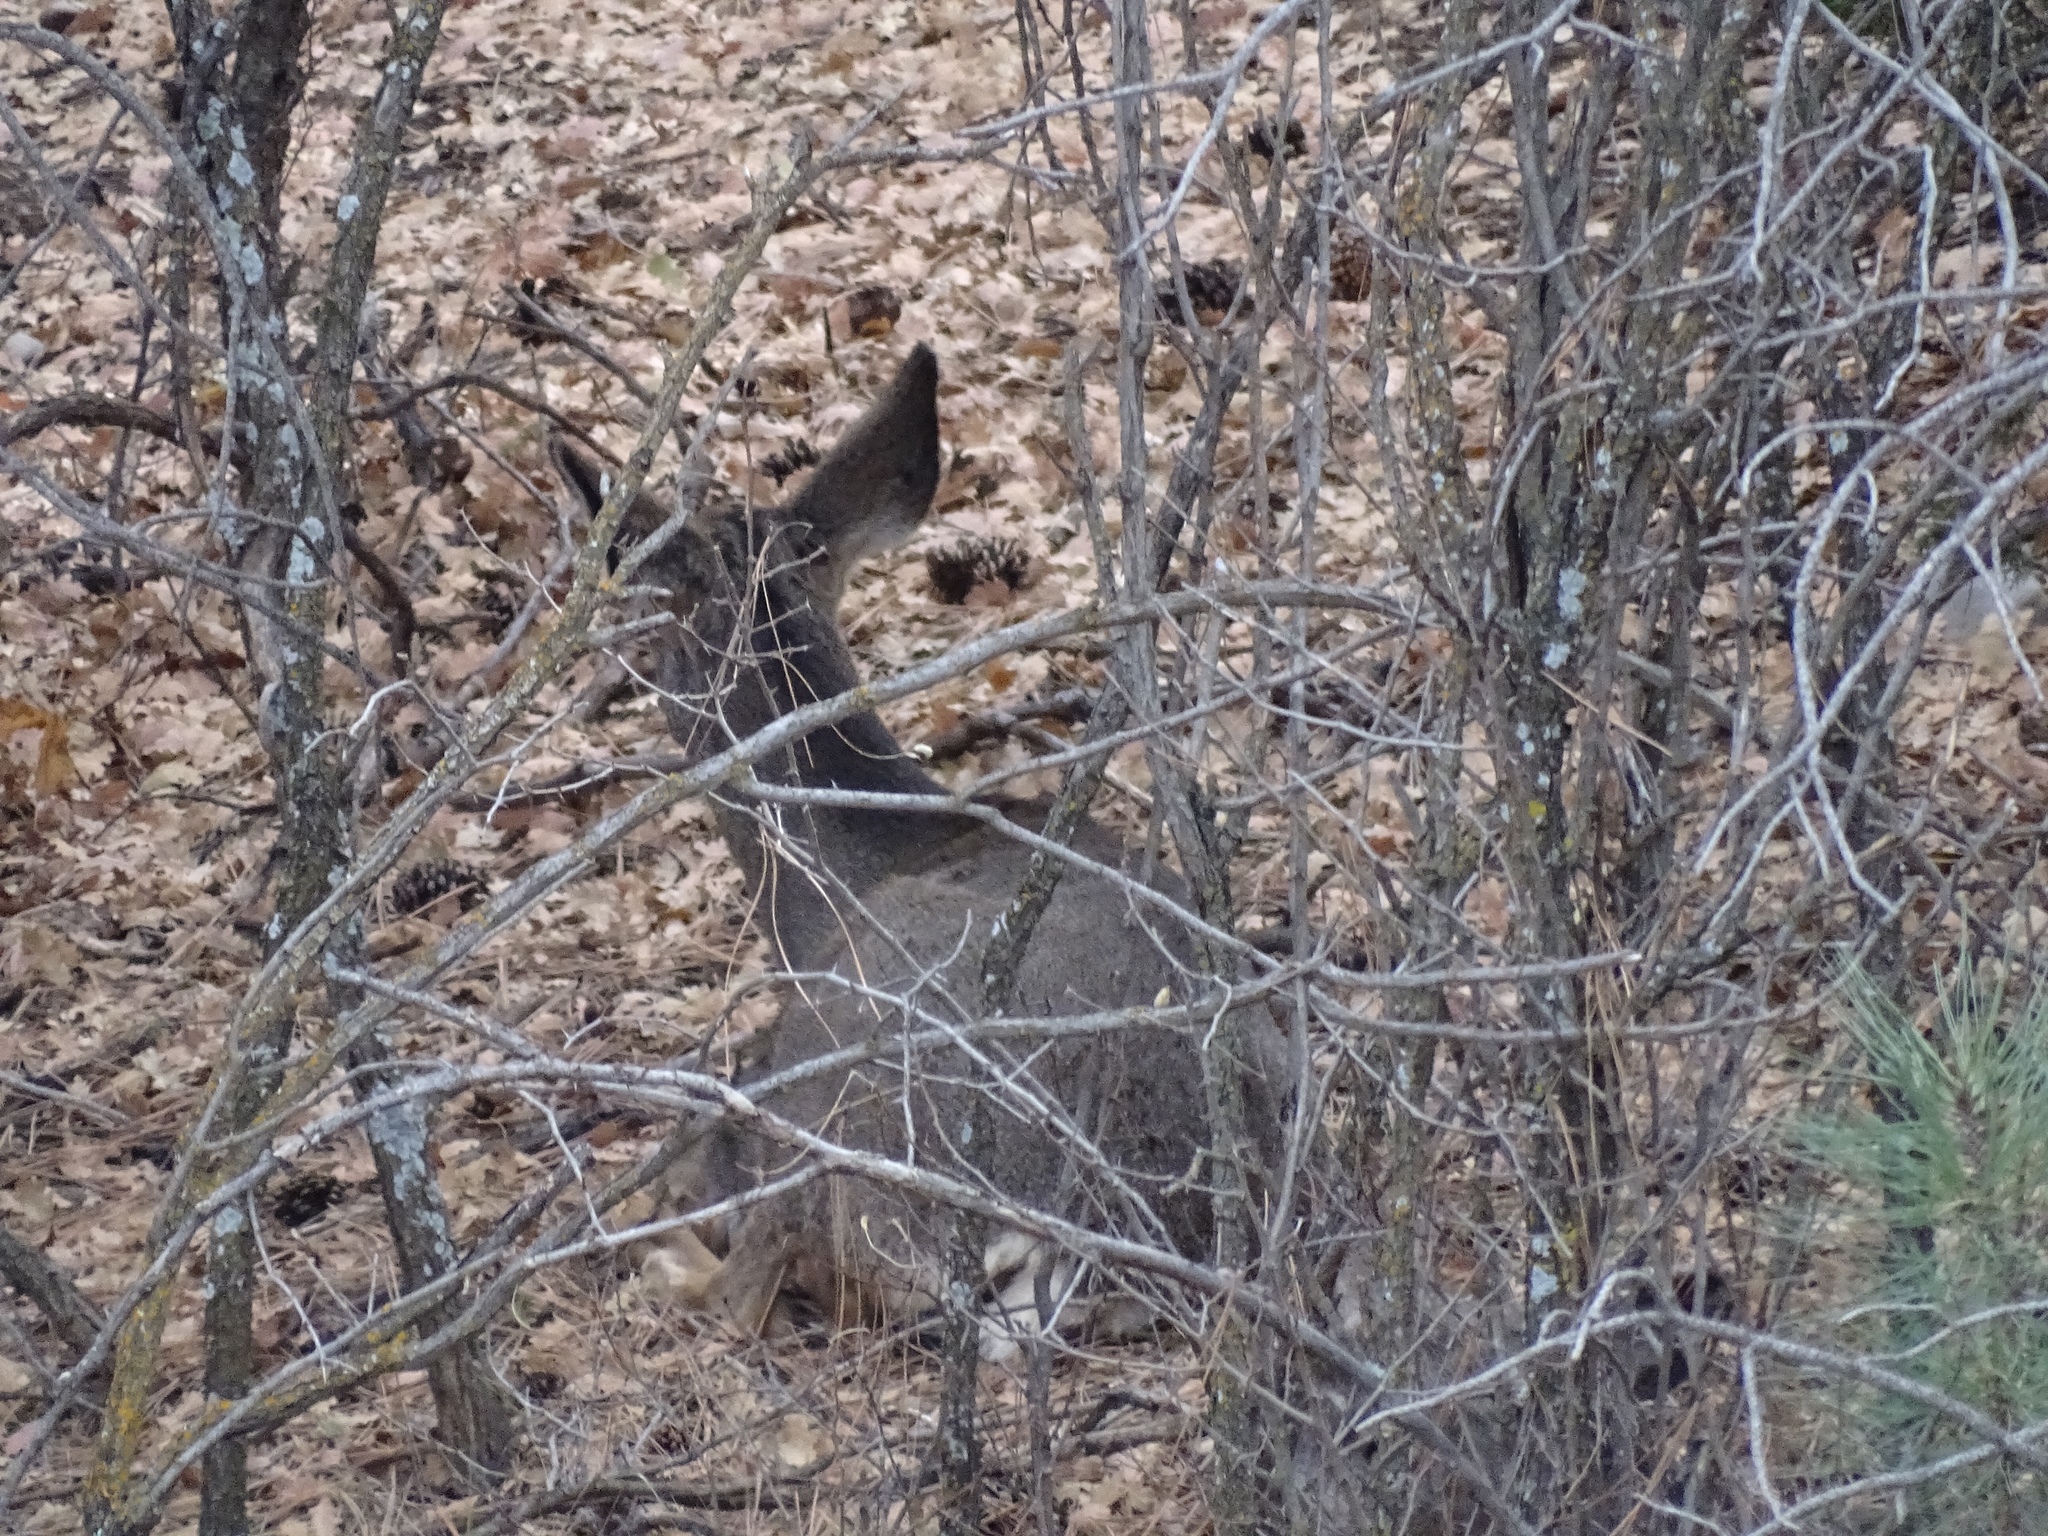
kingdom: Animalia
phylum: Chordata
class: Mammalia
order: Artiodactyla
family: Cervidae
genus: Odocoileus
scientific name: Odocoileus hemionus
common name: Mule deer
